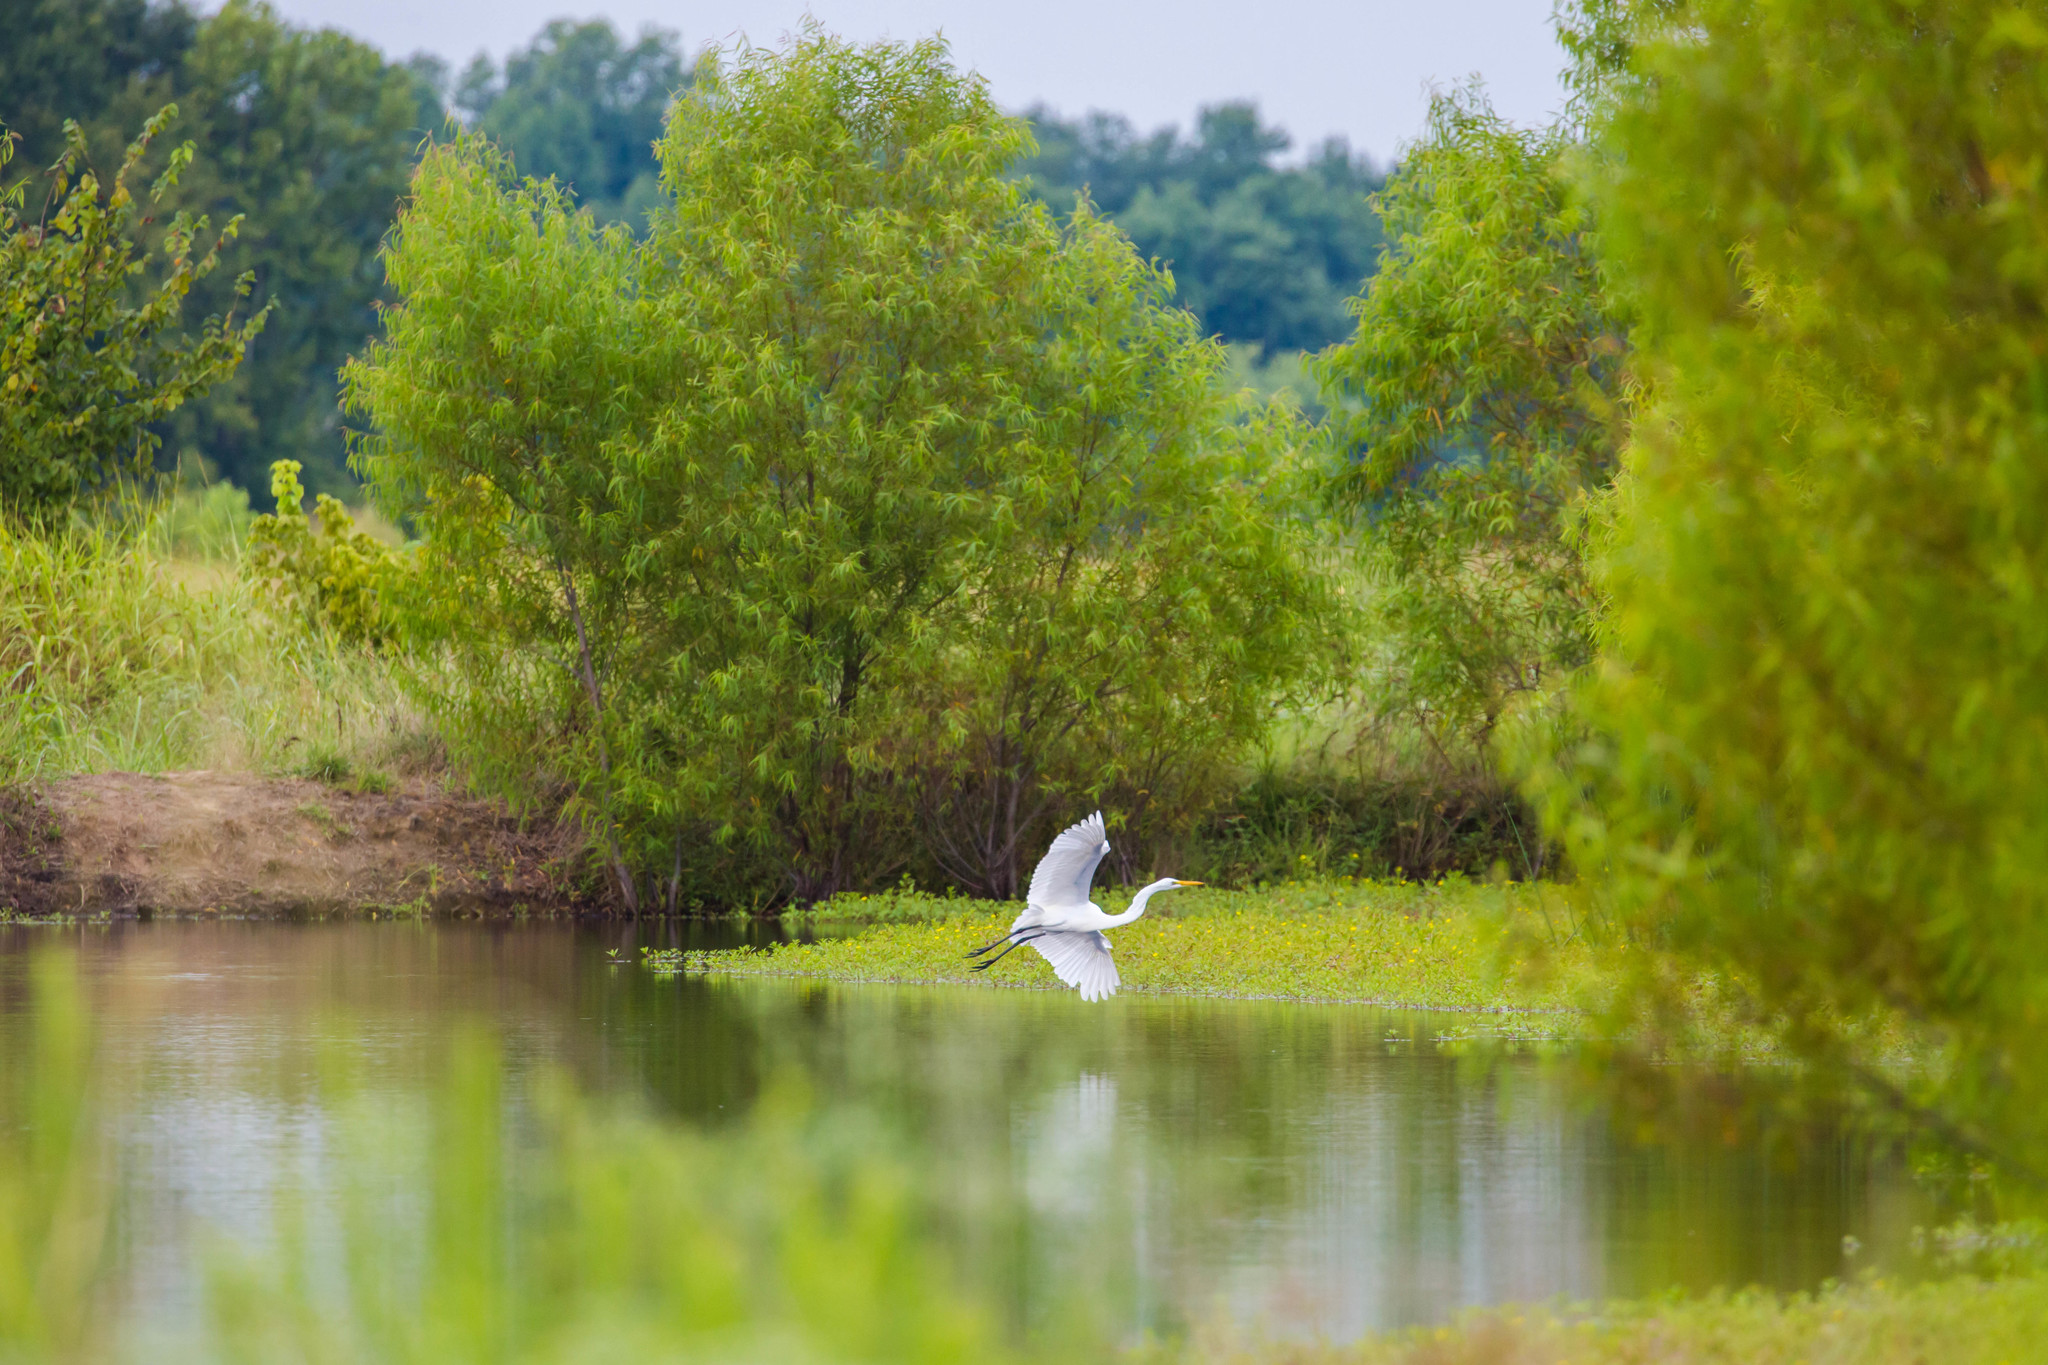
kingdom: Animalia
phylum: Chordata
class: Aves
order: Pelecaniformes
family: Ardeidae
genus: Ardea
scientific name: Ardea alba
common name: Great egret
